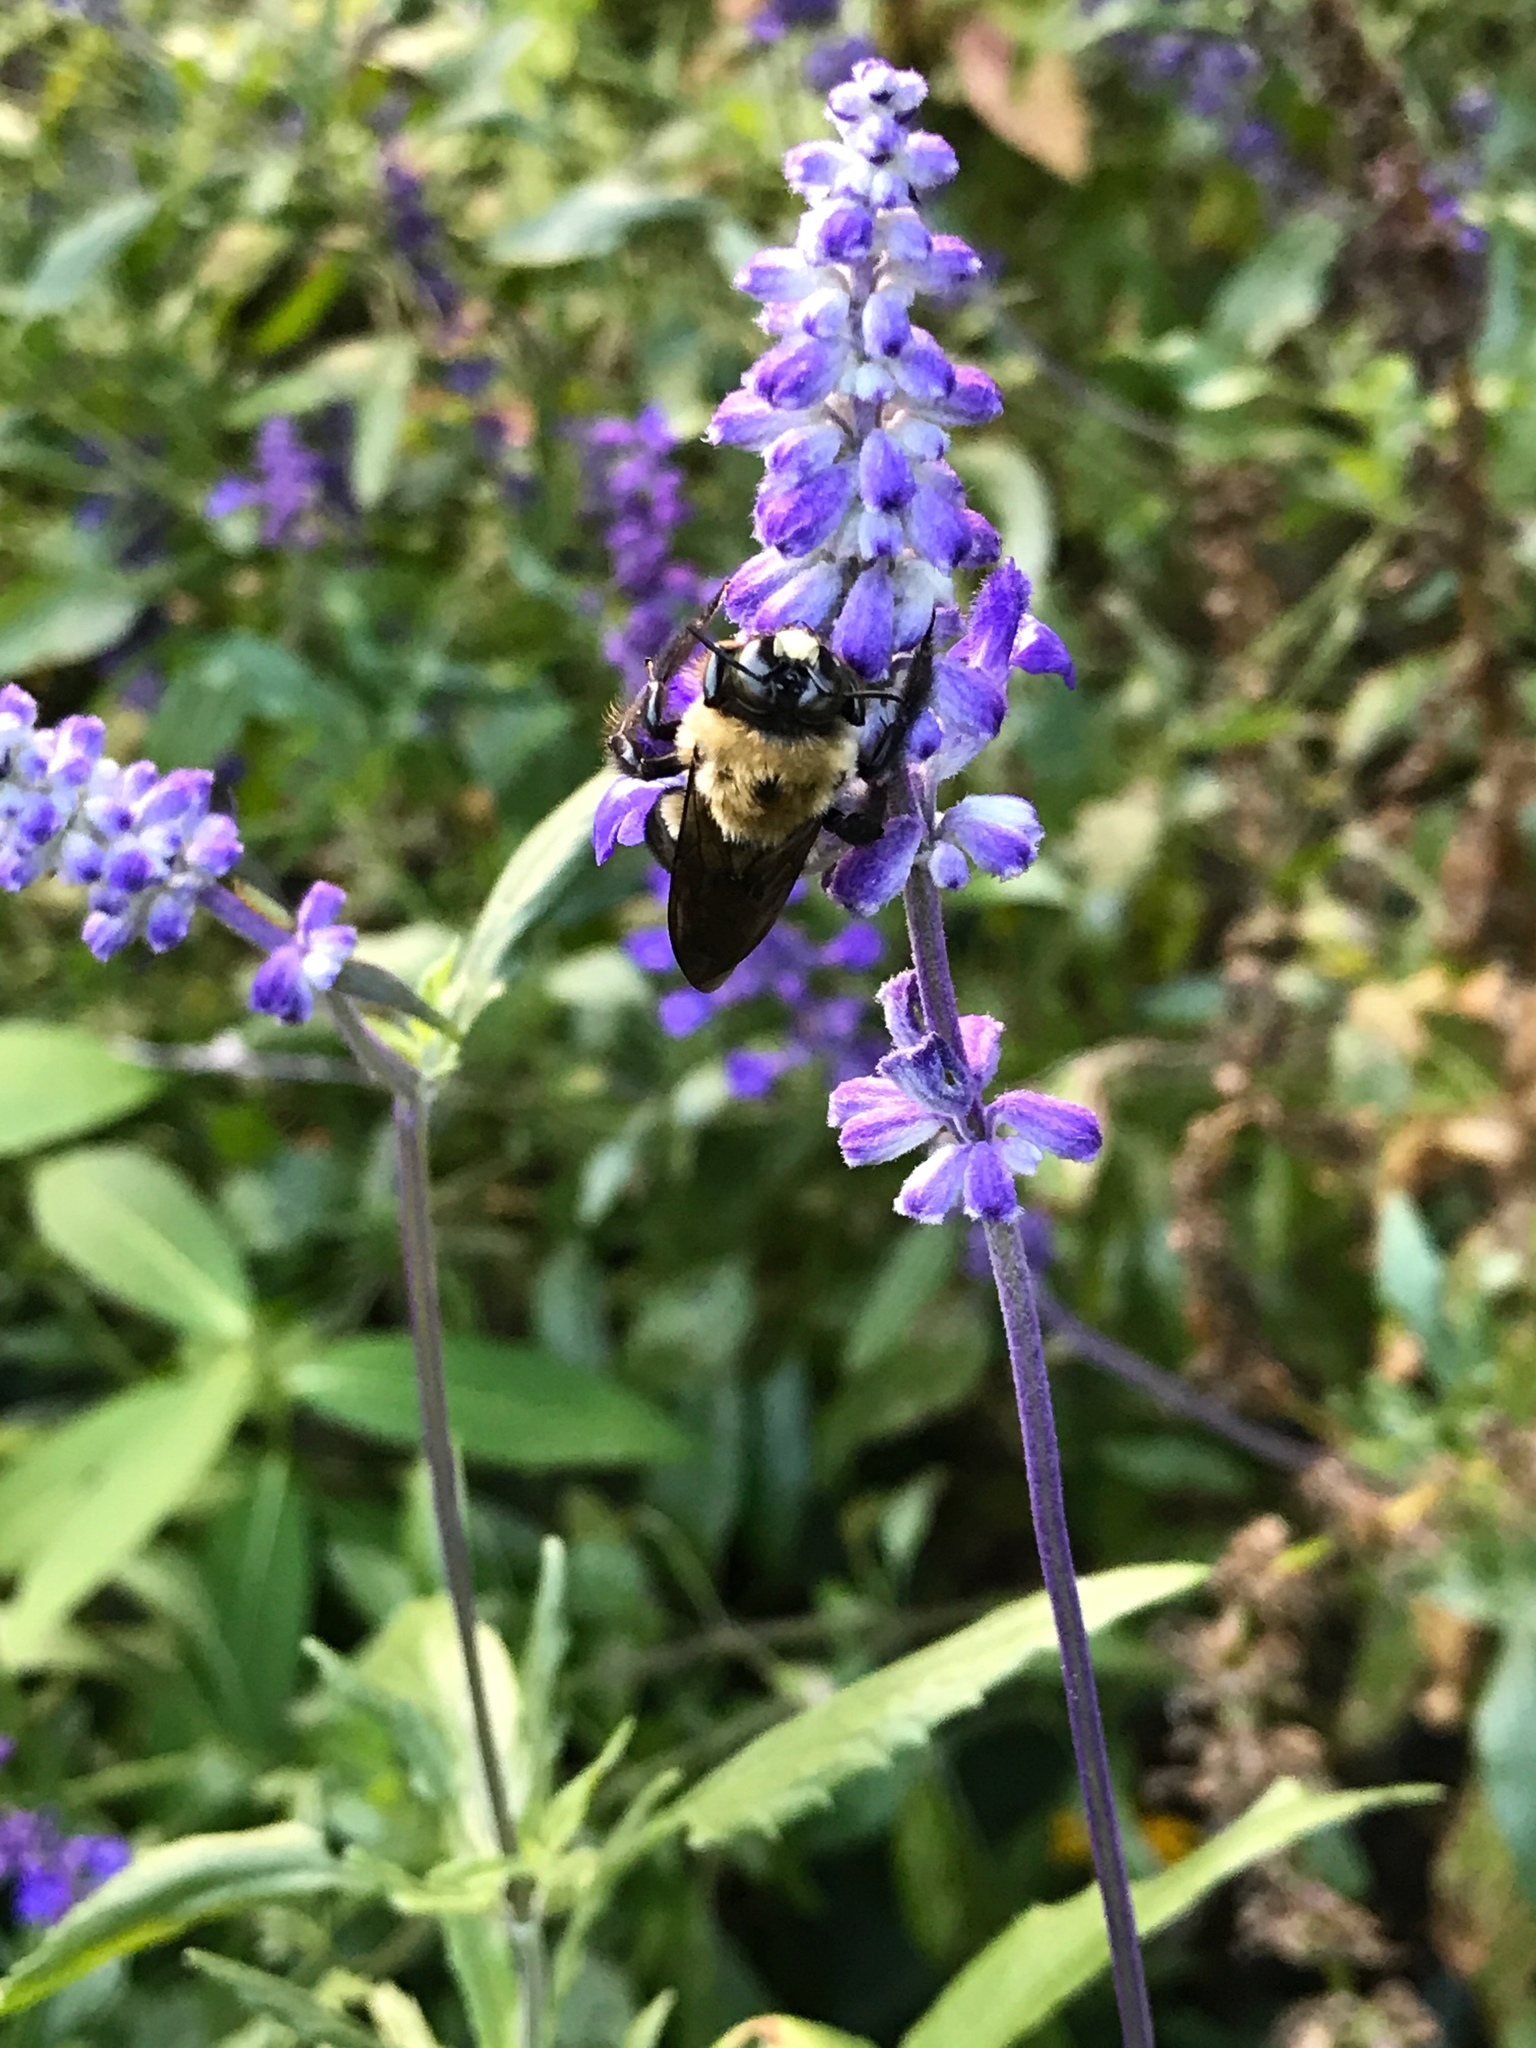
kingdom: Animalia
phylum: Arthropoda
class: Insecta
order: Hymenoptera
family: Apidae
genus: Xylocopa
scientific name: Xylocopa virginica
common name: Carpenter bee
